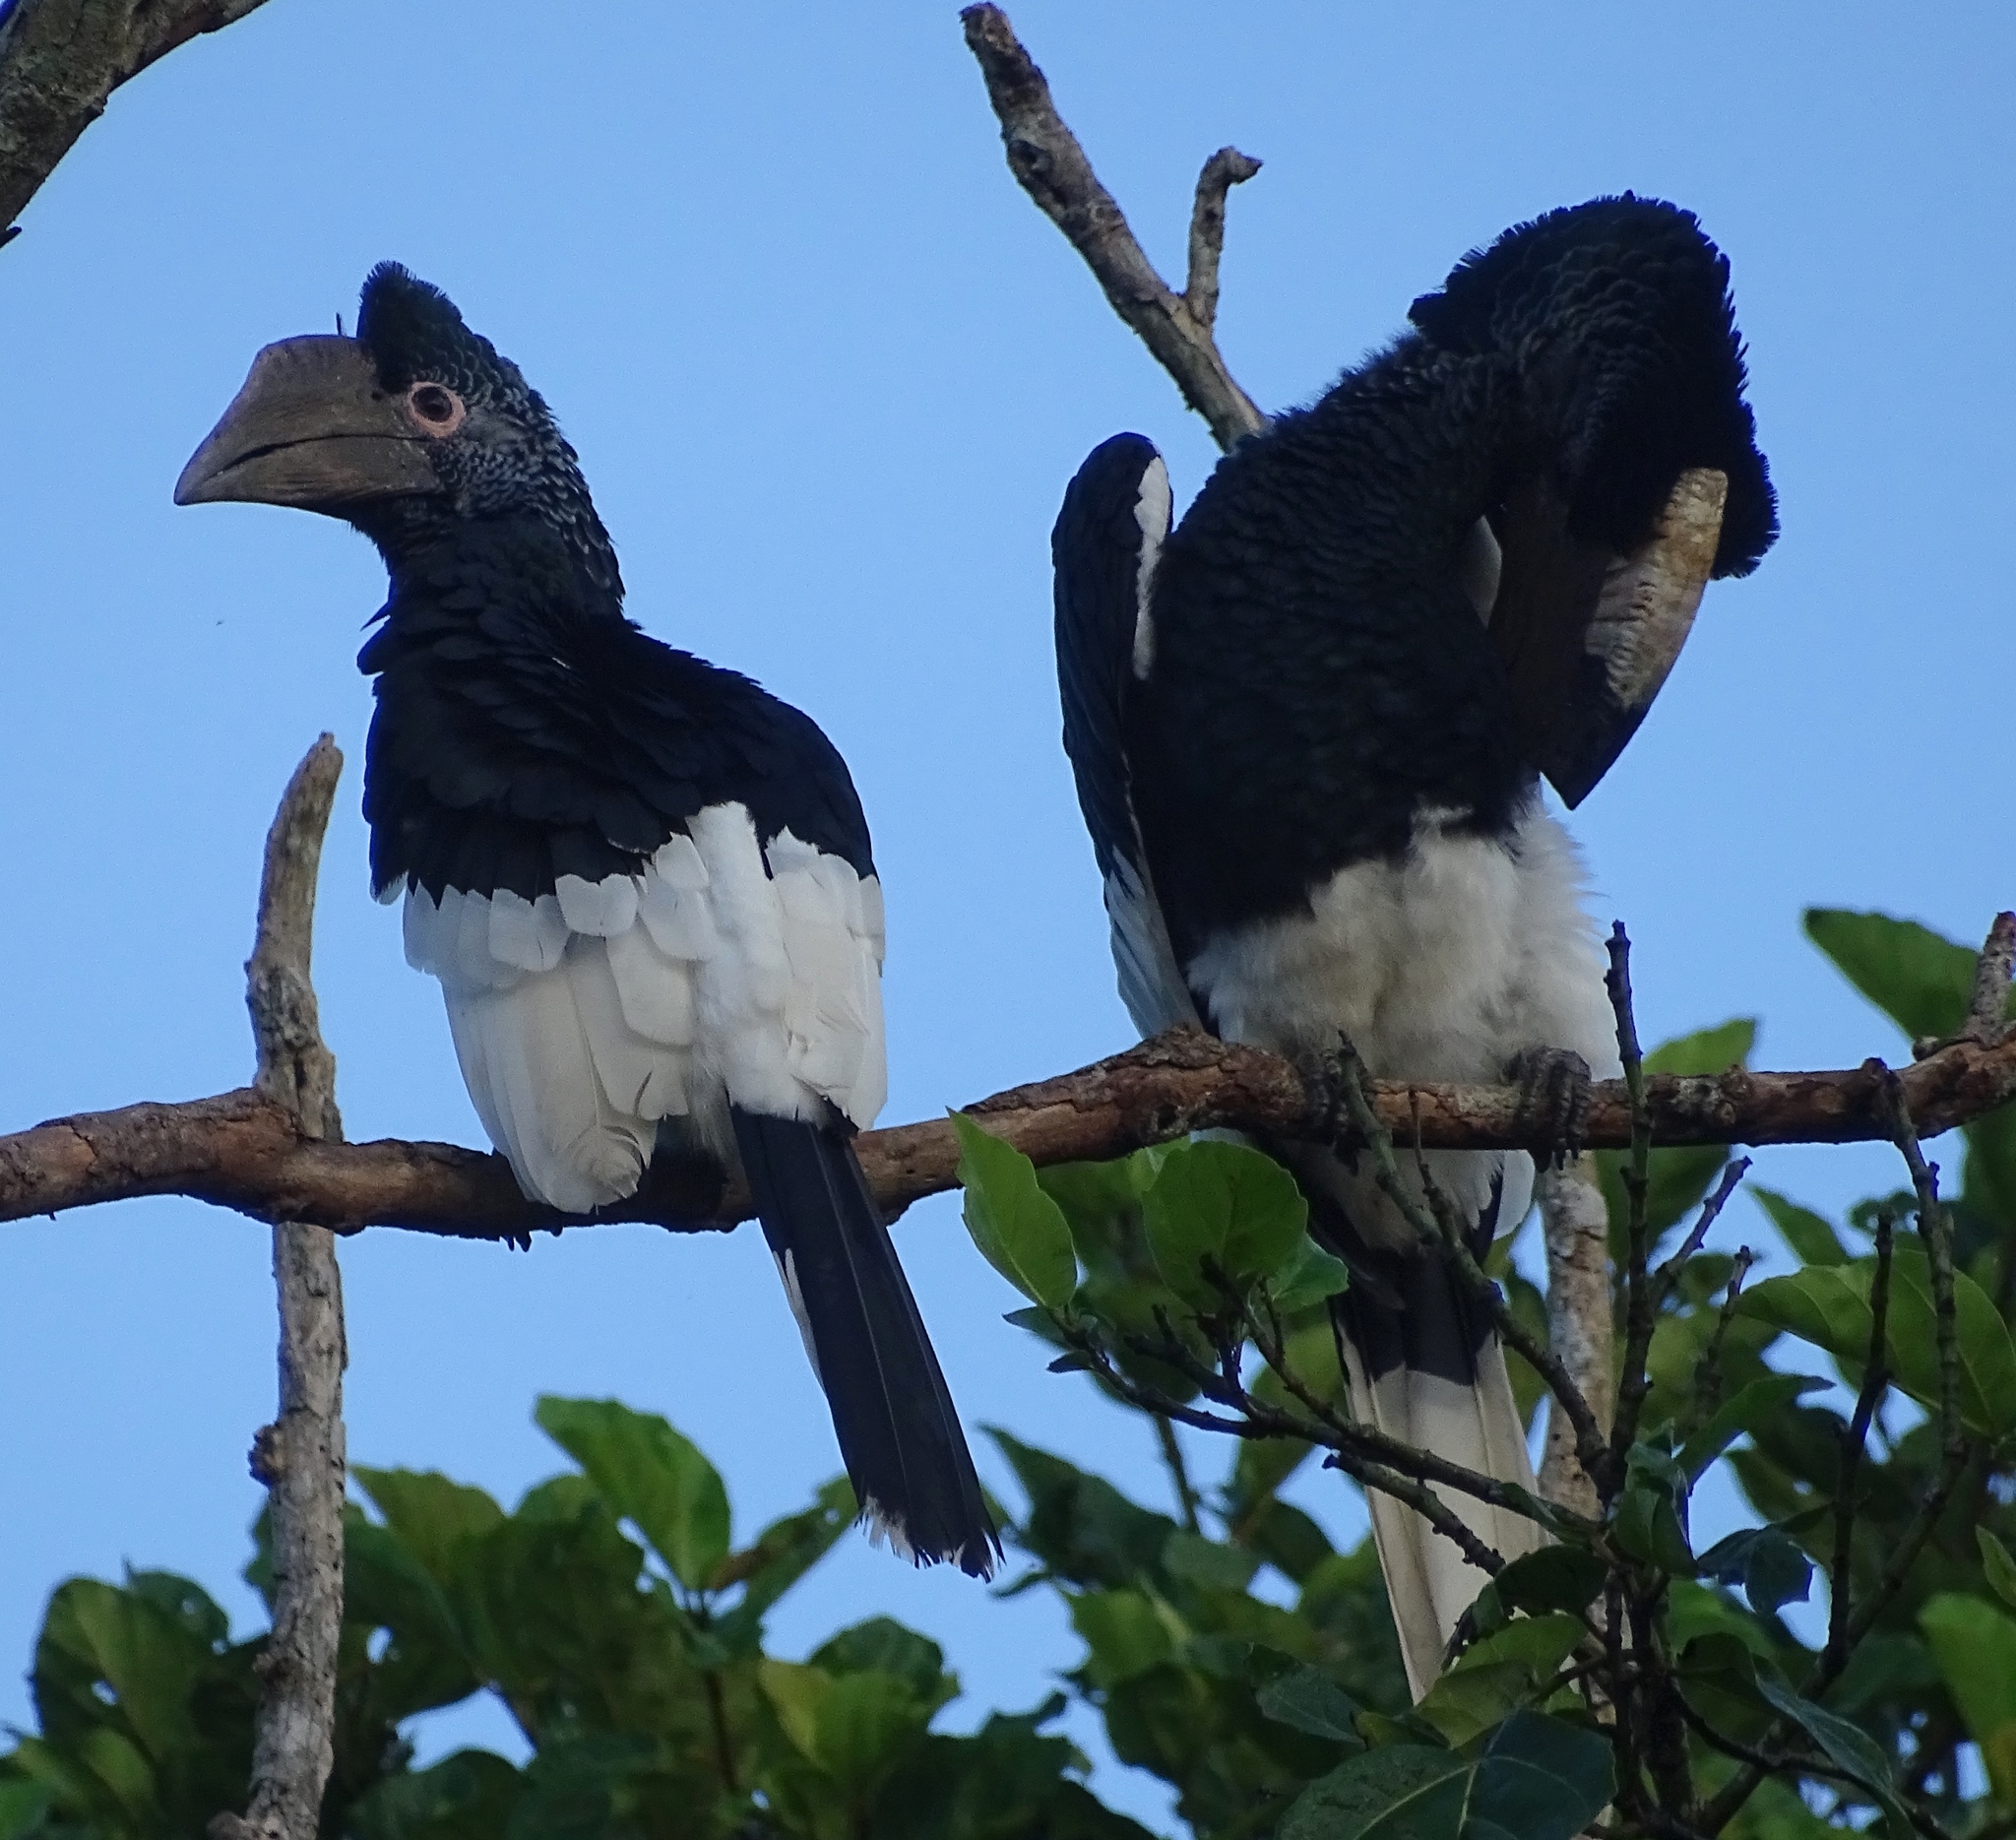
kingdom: Animalia
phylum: Chordata
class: Aves
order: Bucerotiformes
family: Bucerotidae
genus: Bycanistes
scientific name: Bycanistes subcylindricus
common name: Black-and-white-casqued hornbill
